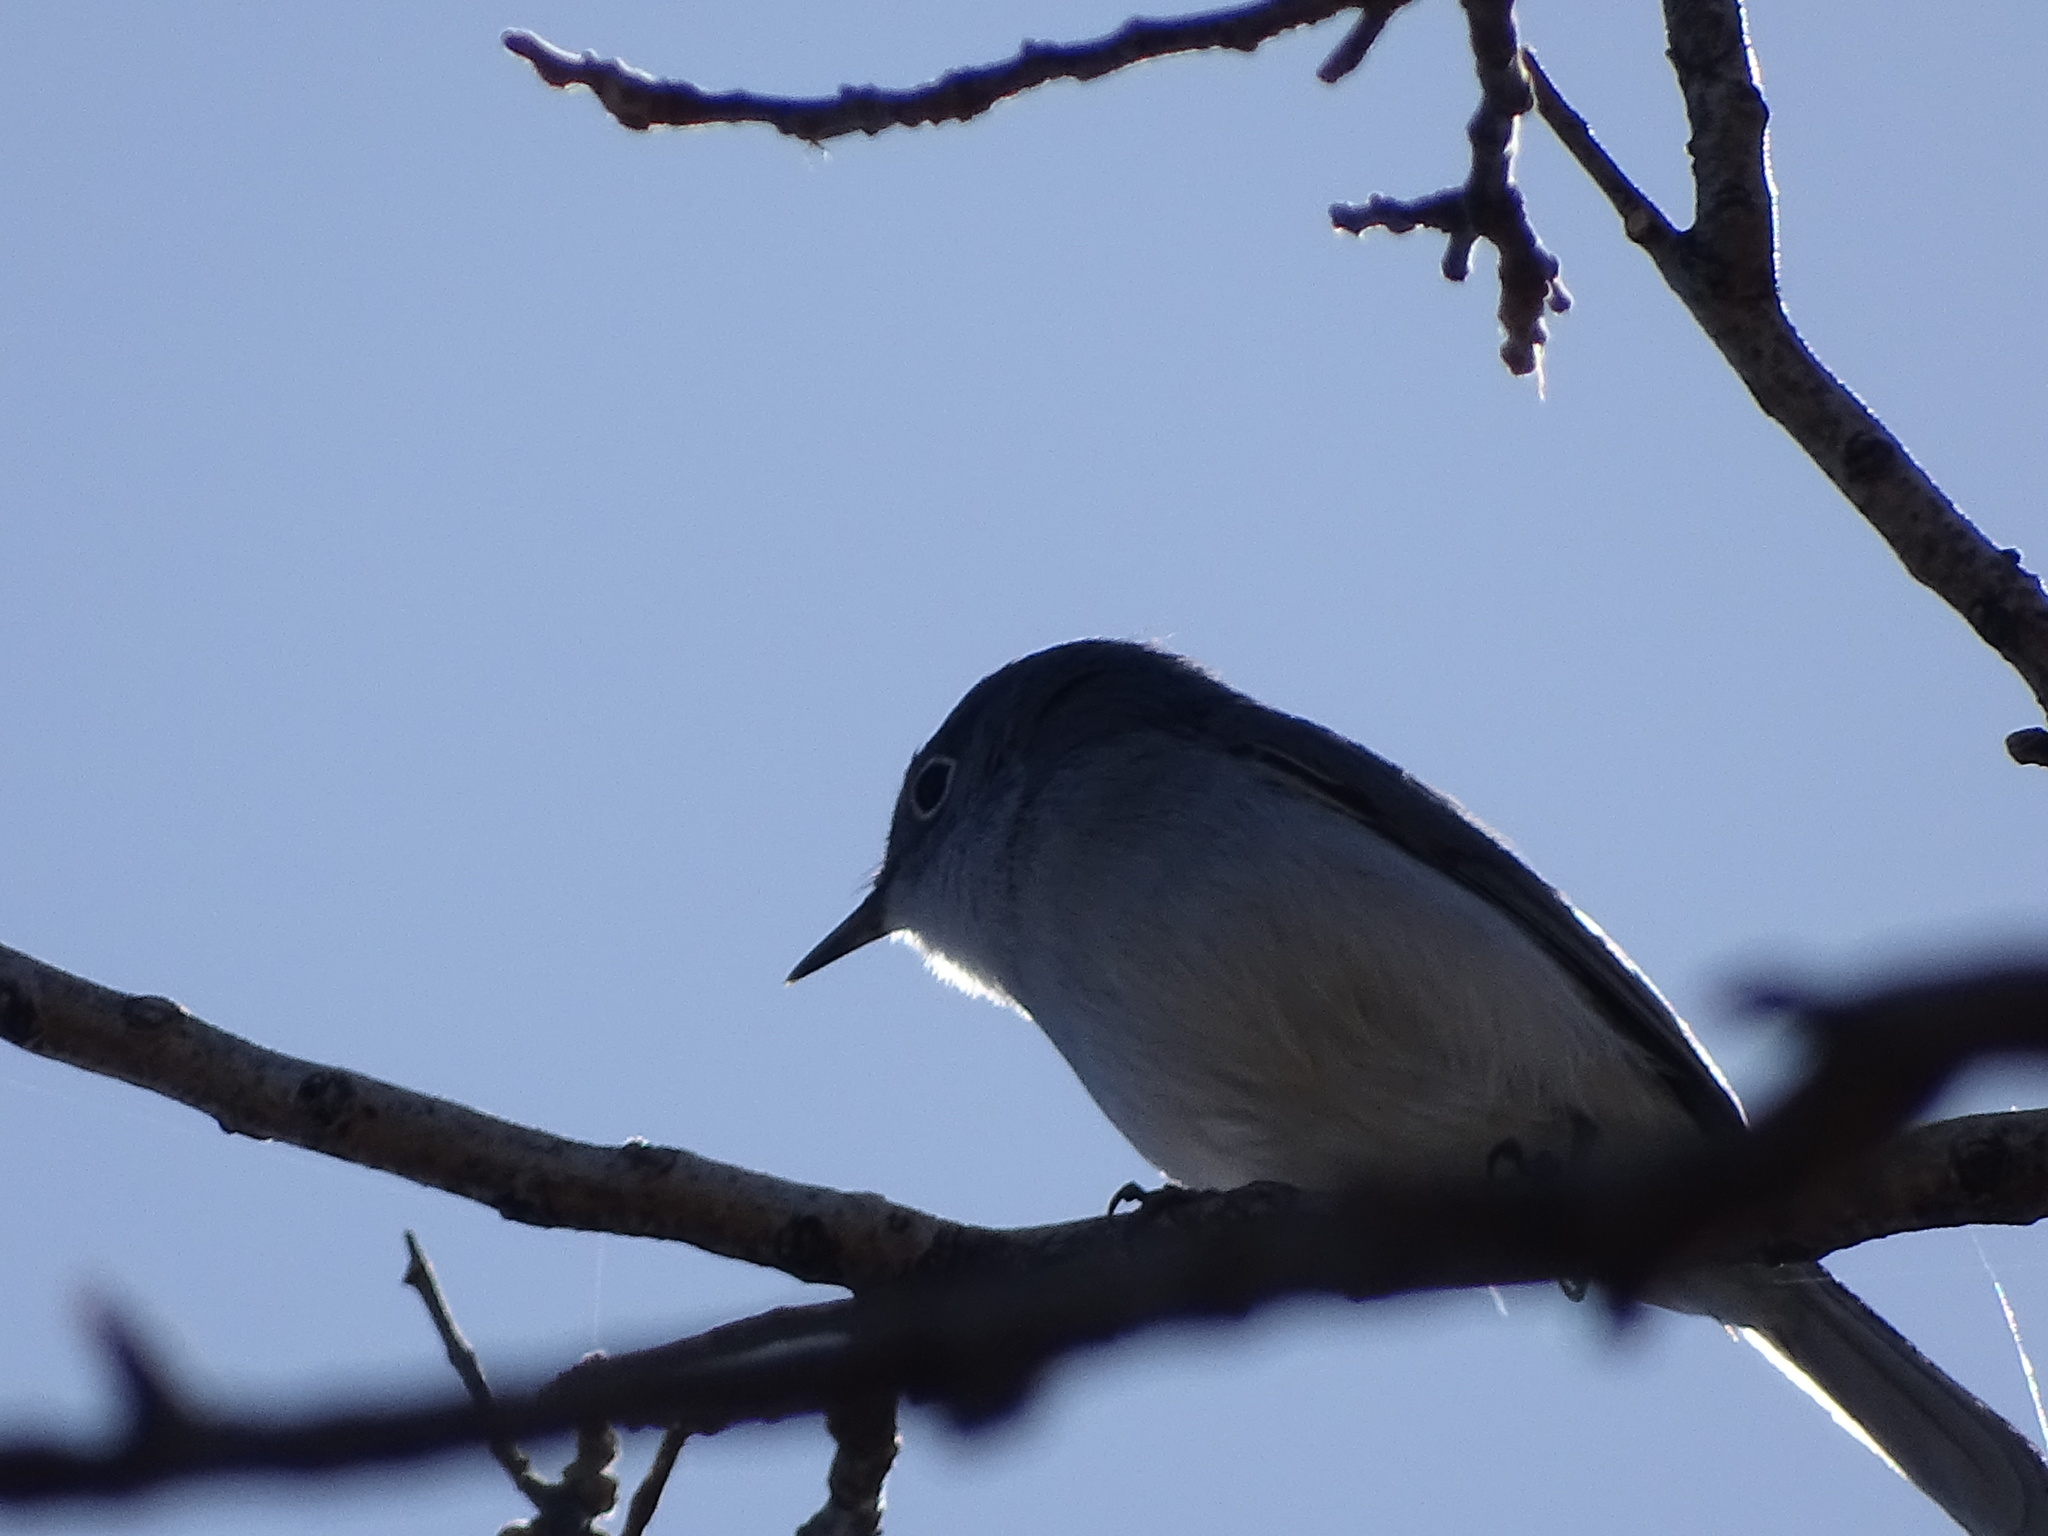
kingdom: Animalia
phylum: Chordata
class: Aves
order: Passeriformes
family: Polioptilidae
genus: Polioptila
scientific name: Polioptila caerulea
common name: Blue-gray gnatcatcher
